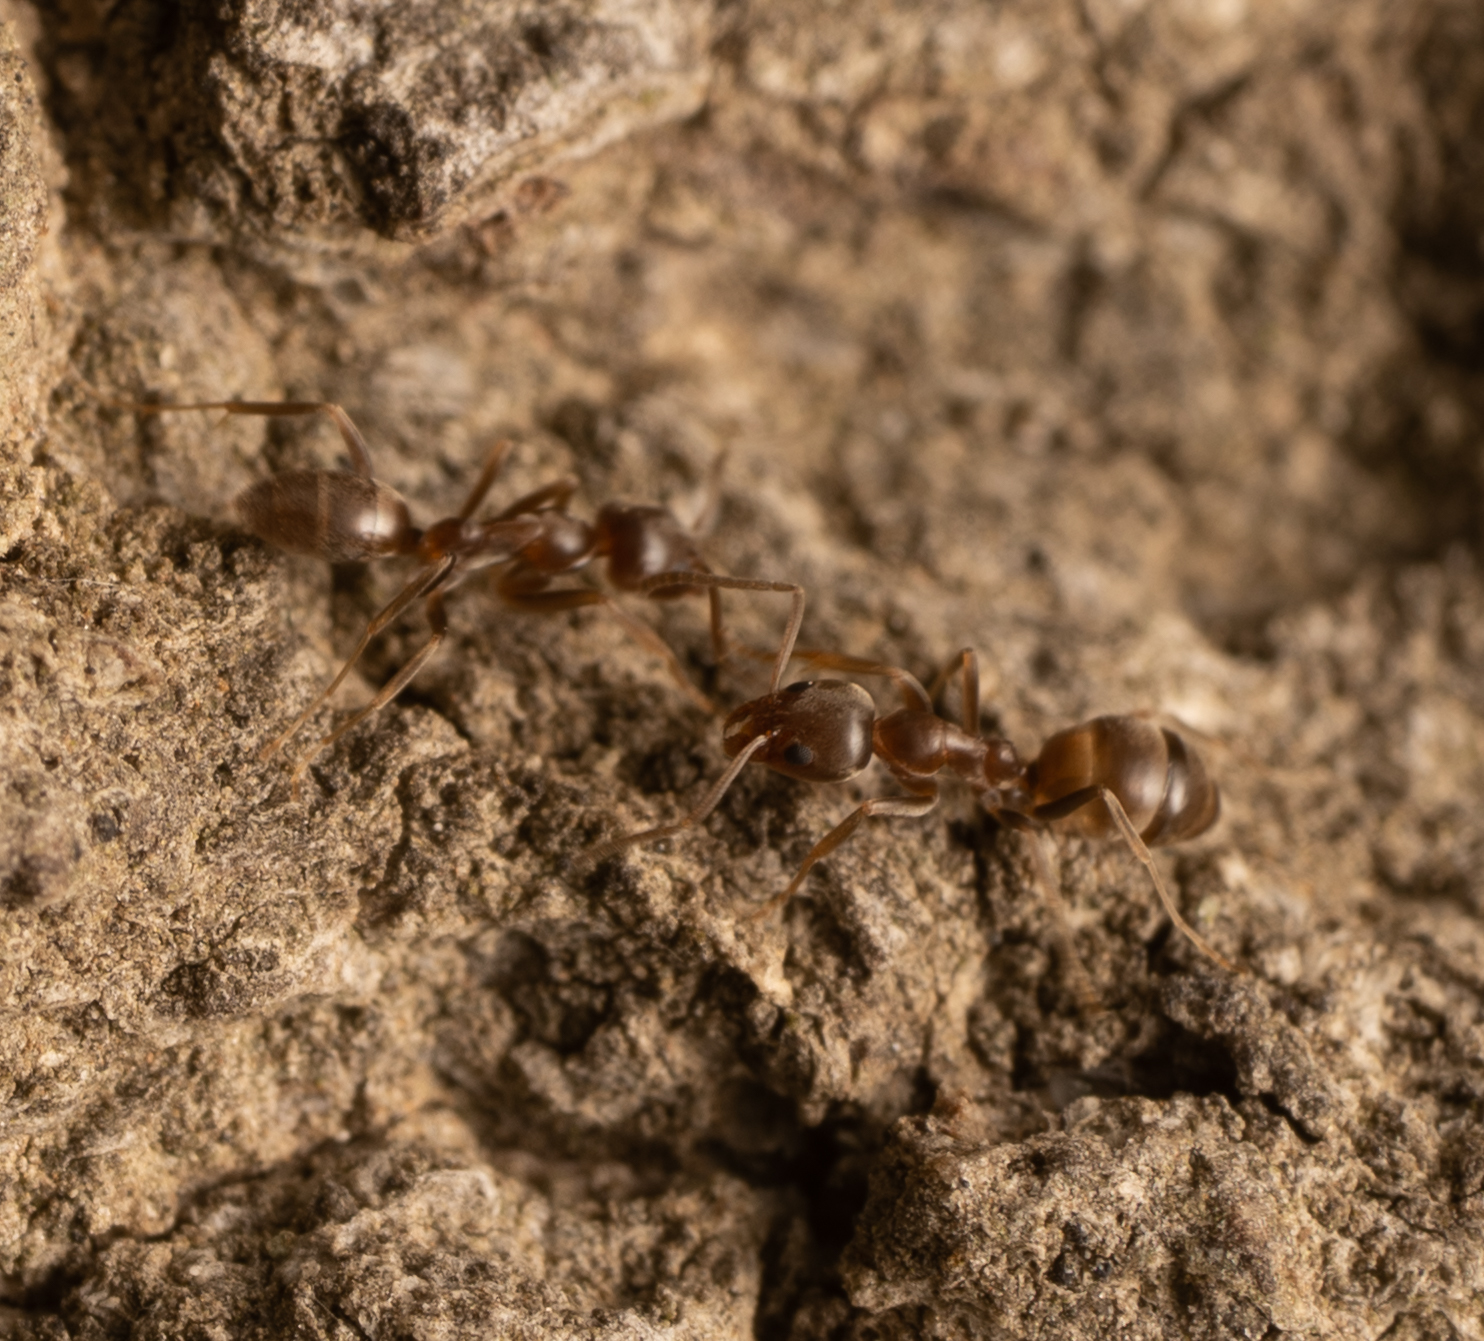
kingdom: Animalia
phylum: Arthropoda
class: Insecta
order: Hymenoptera
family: Formicidae
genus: Linepithema
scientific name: Linepithema humile
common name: Argentine ant
